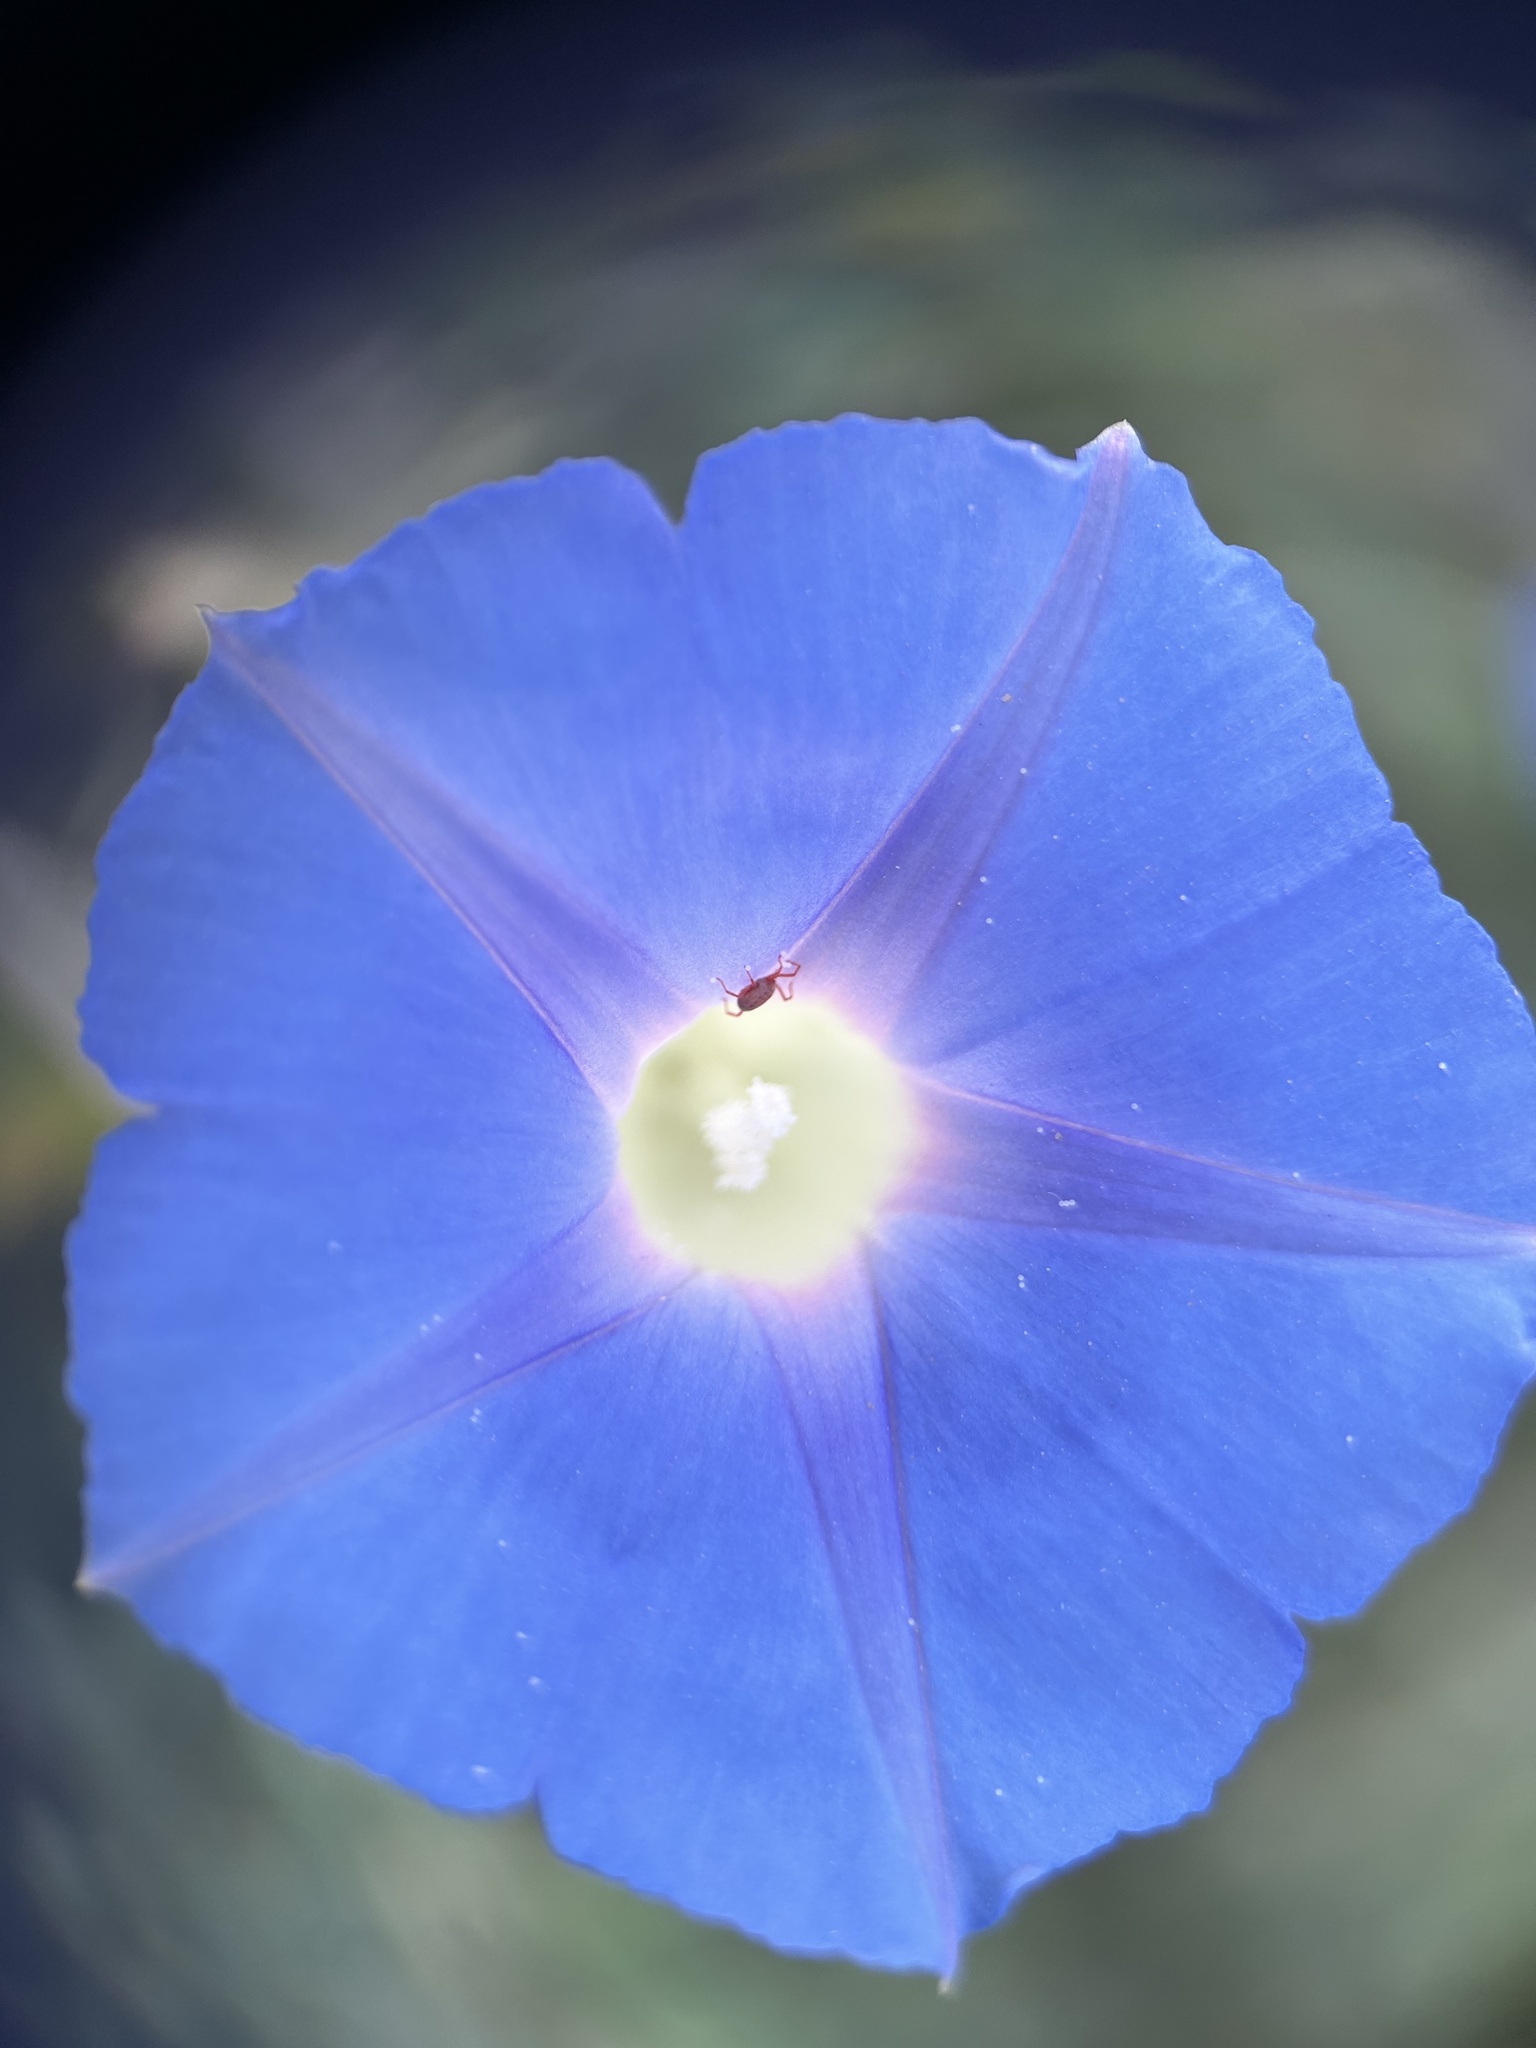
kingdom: Plantae
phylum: Tracheophyta
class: Magnoliopsida
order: Solanales
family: Convolvulaceae
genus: Ipomoea
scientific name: Ipomoea nil
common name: Japanese morning-glory
